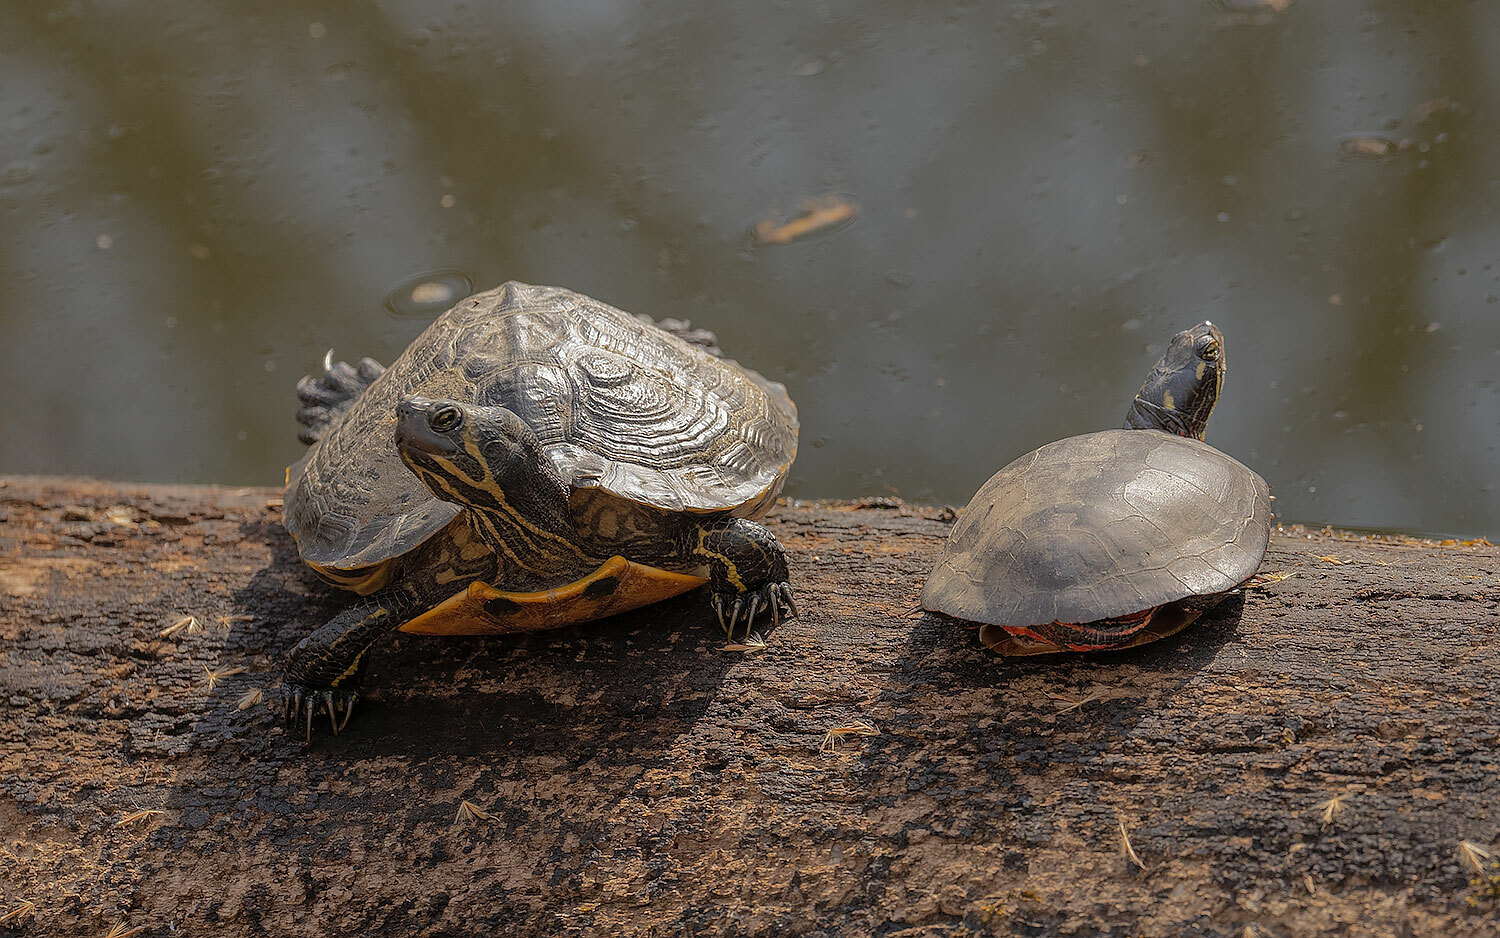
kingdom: Animalia
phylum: Chordata
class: Testudines
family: Emydidae
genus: Chrysemys
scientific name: Chrysemys picta
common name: Painted turtle
